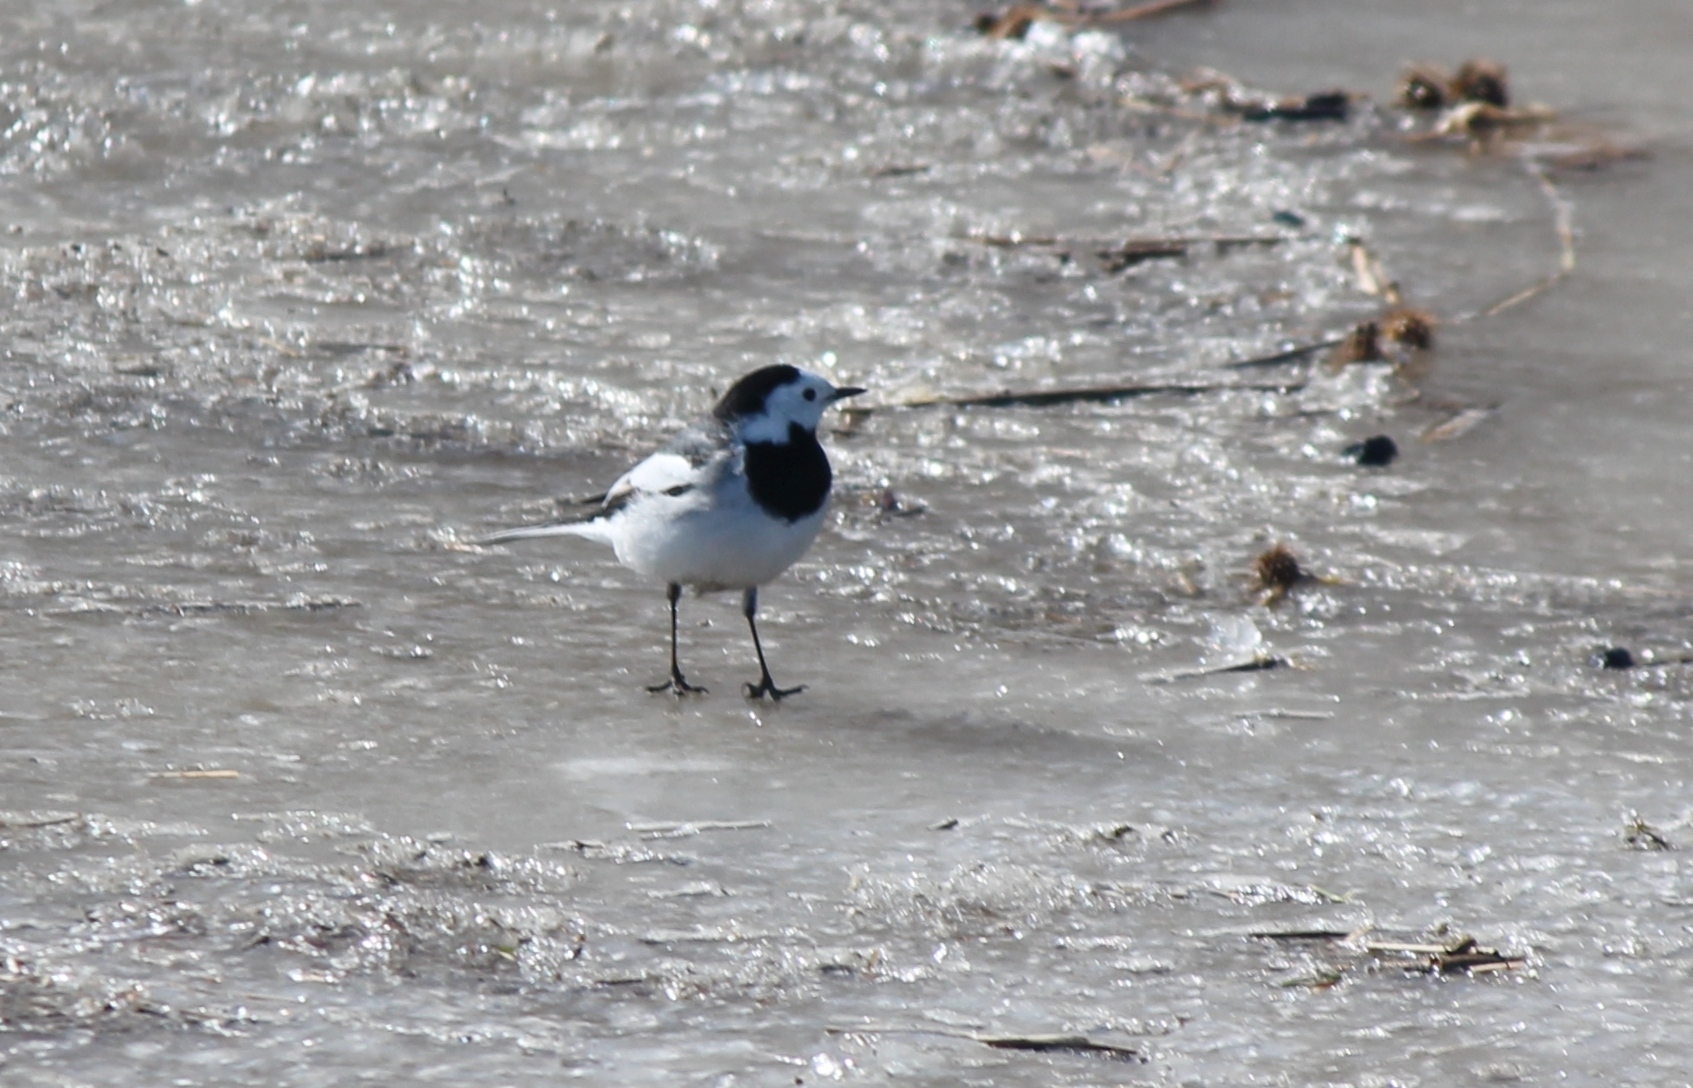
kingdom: Animalia
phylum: Chordata
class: Aves
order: Passeriformes
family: Motacillidae
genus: Motacilla
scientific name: Motacilla alba
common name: White wagtail
